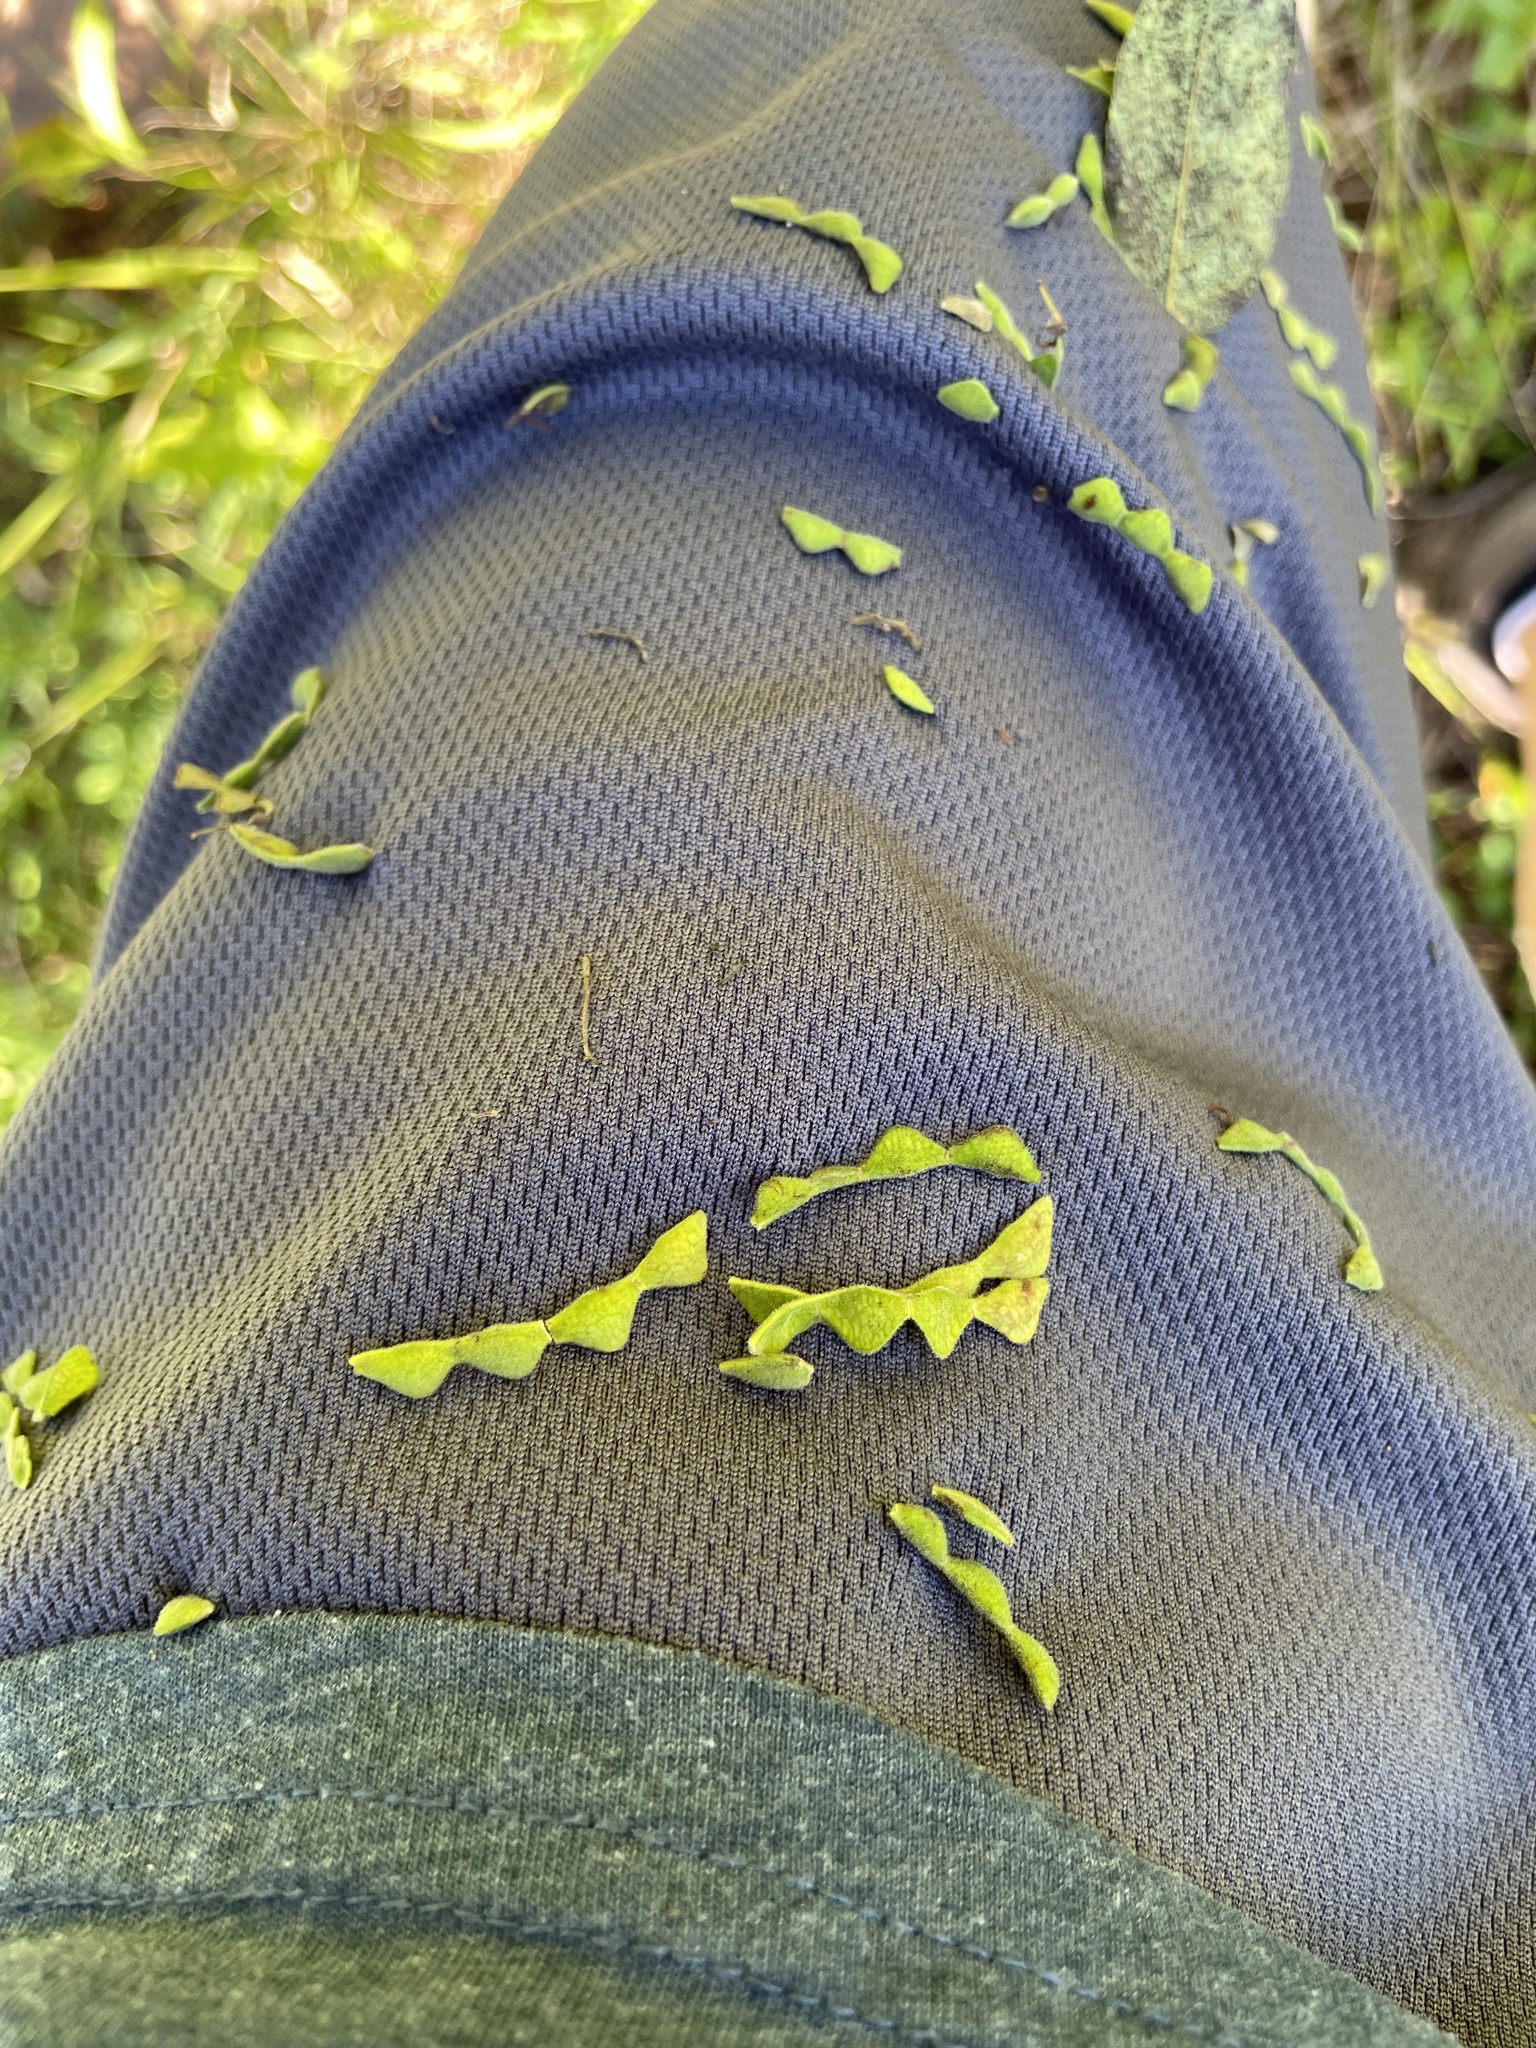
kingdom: Plantae
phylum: Tracheophyta
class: Magnoliopsida
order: Fabales
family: Fabaceae
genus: Desmodium
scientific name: Desmodium
